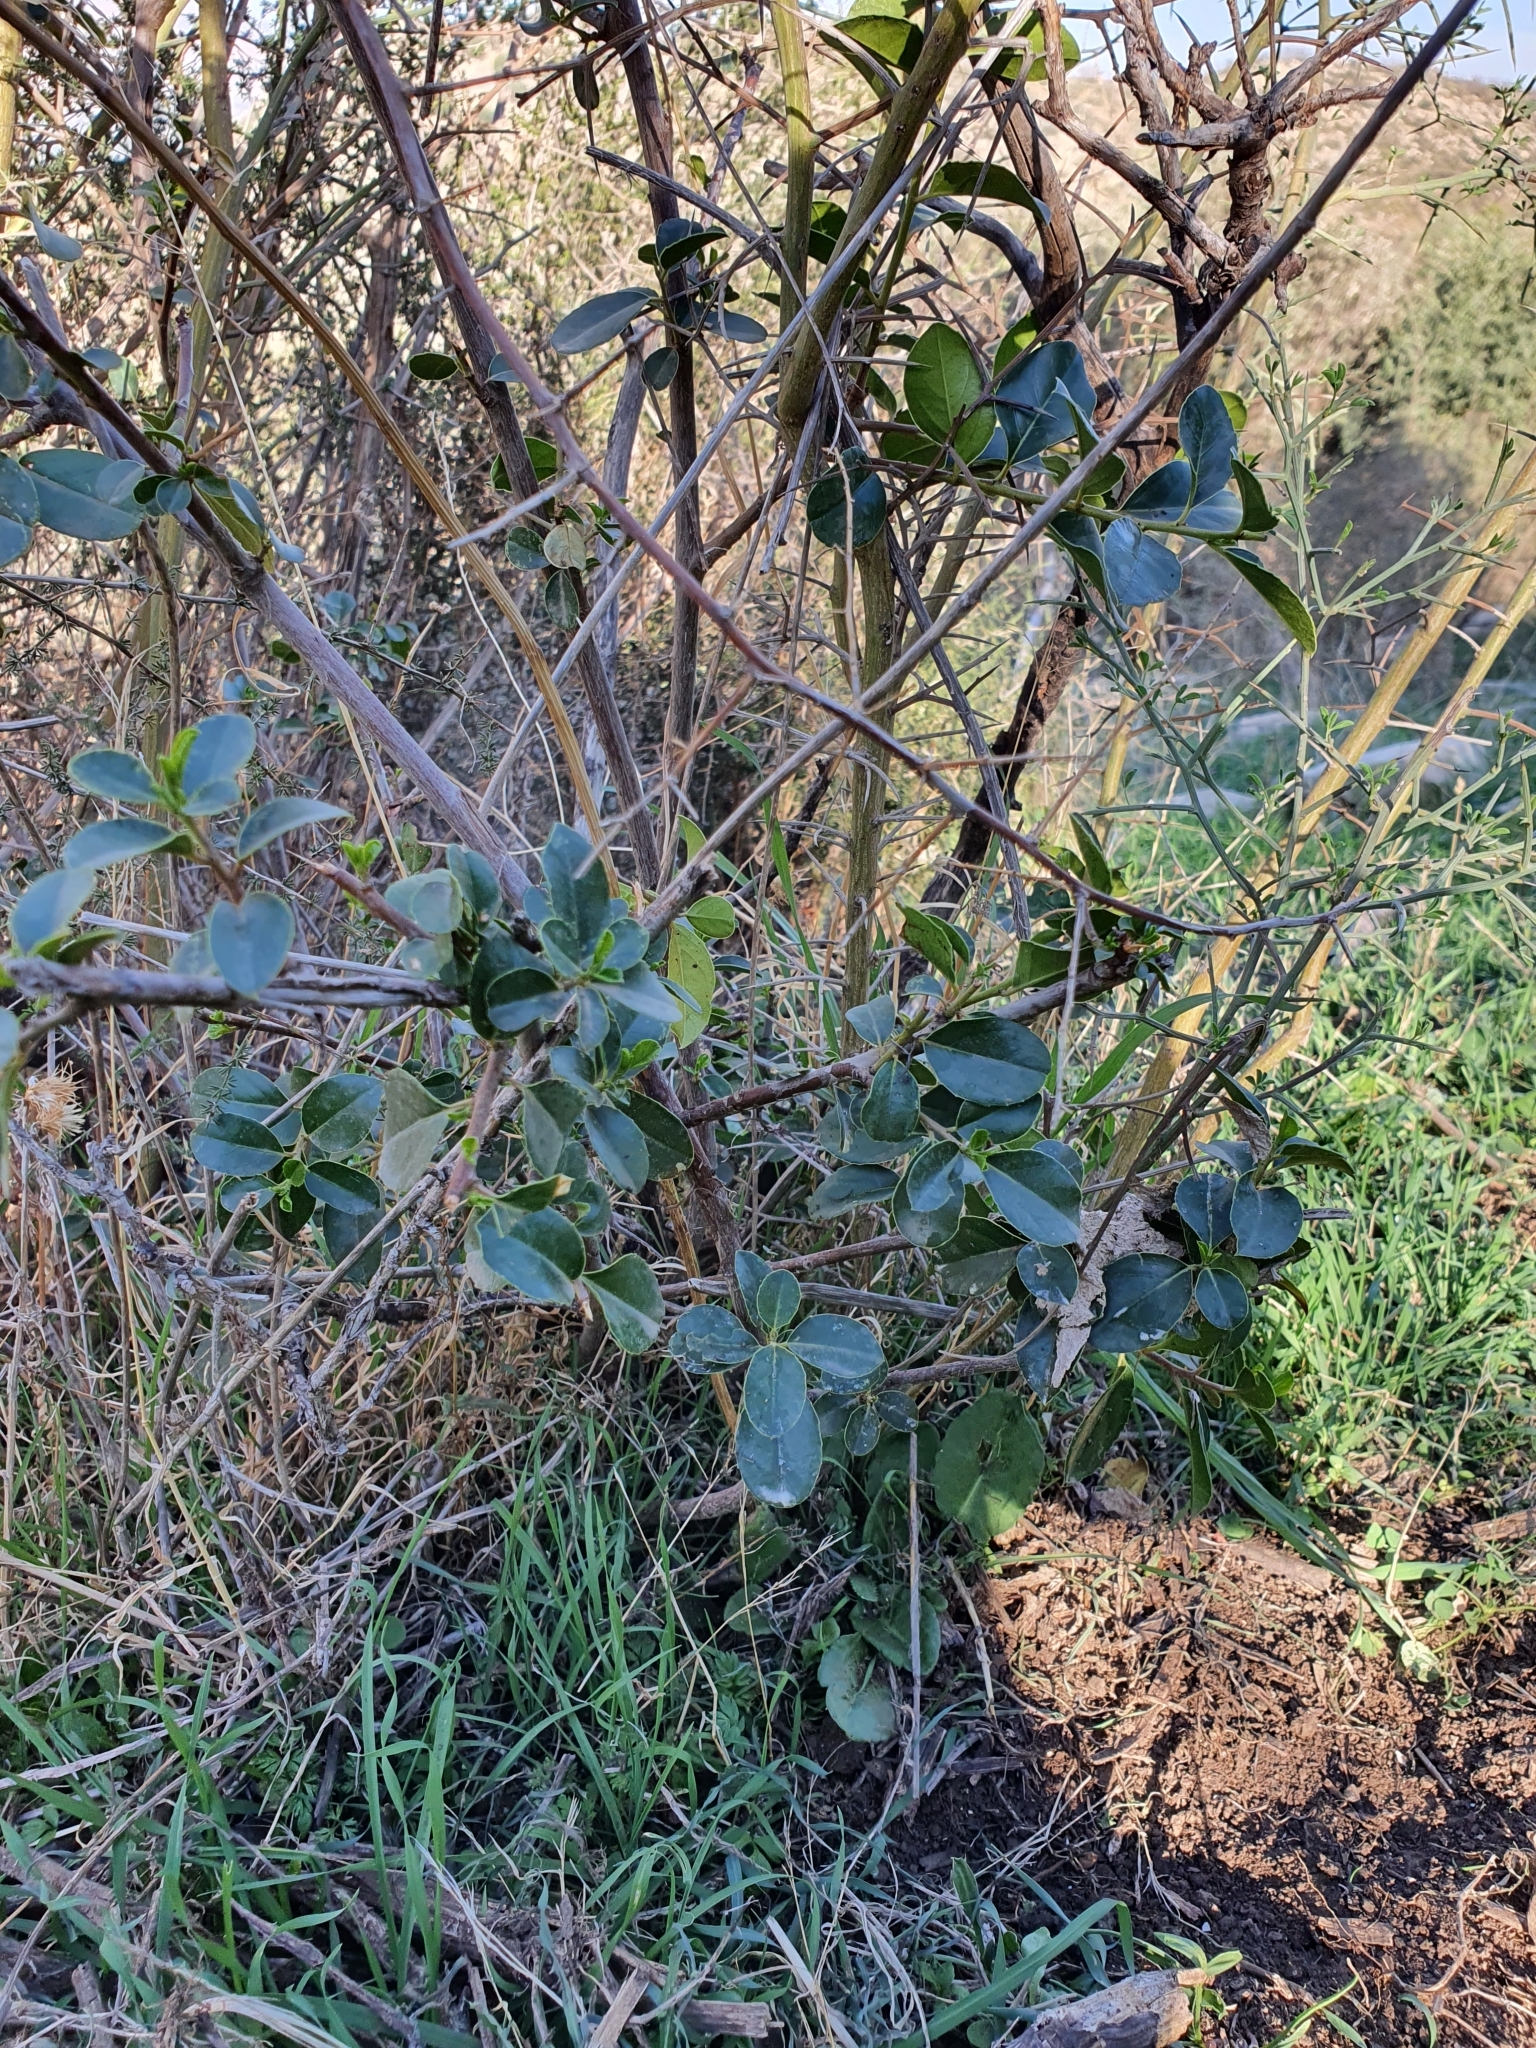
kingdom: Plantae
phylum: Tracheophyta
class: Magnoliopsida
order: Rosales
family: Rhamnaceae
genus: Rhamnus
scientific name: Rhamnus alaternus
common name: Mediterranean buckthorn
